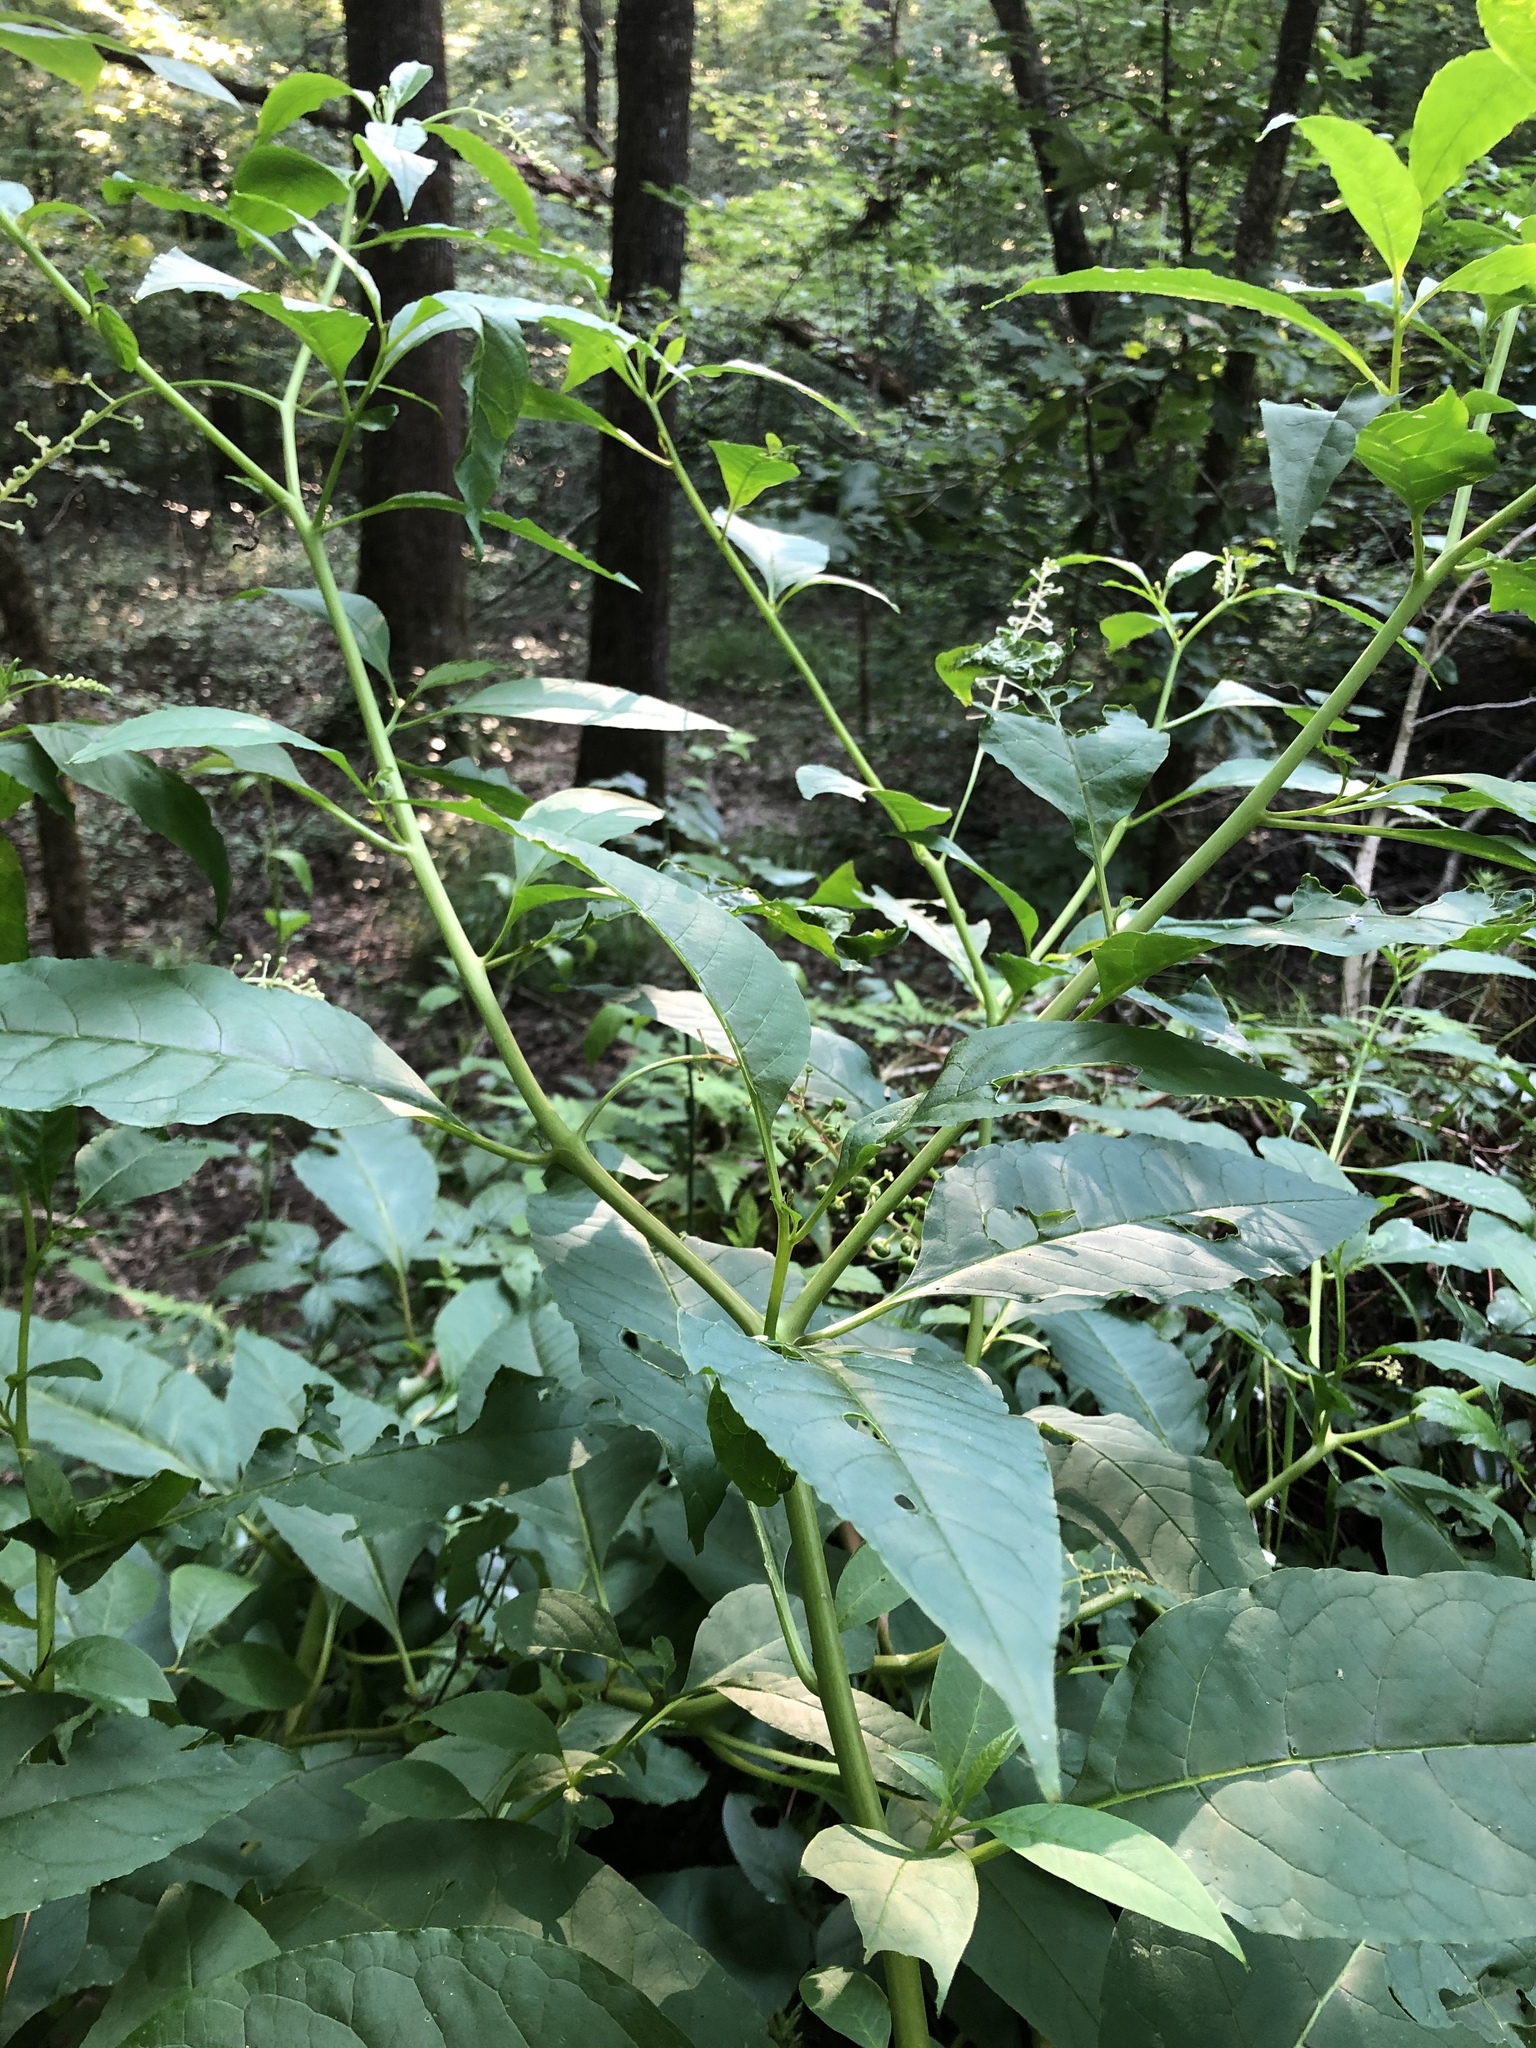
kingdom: Plantae
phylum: Tracheophyta
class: Magnoliopsida
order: Caryophyllales
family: Phytolaccaceae
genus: Phytolacca
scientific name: Phytolacca americana
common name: American pokeweed
